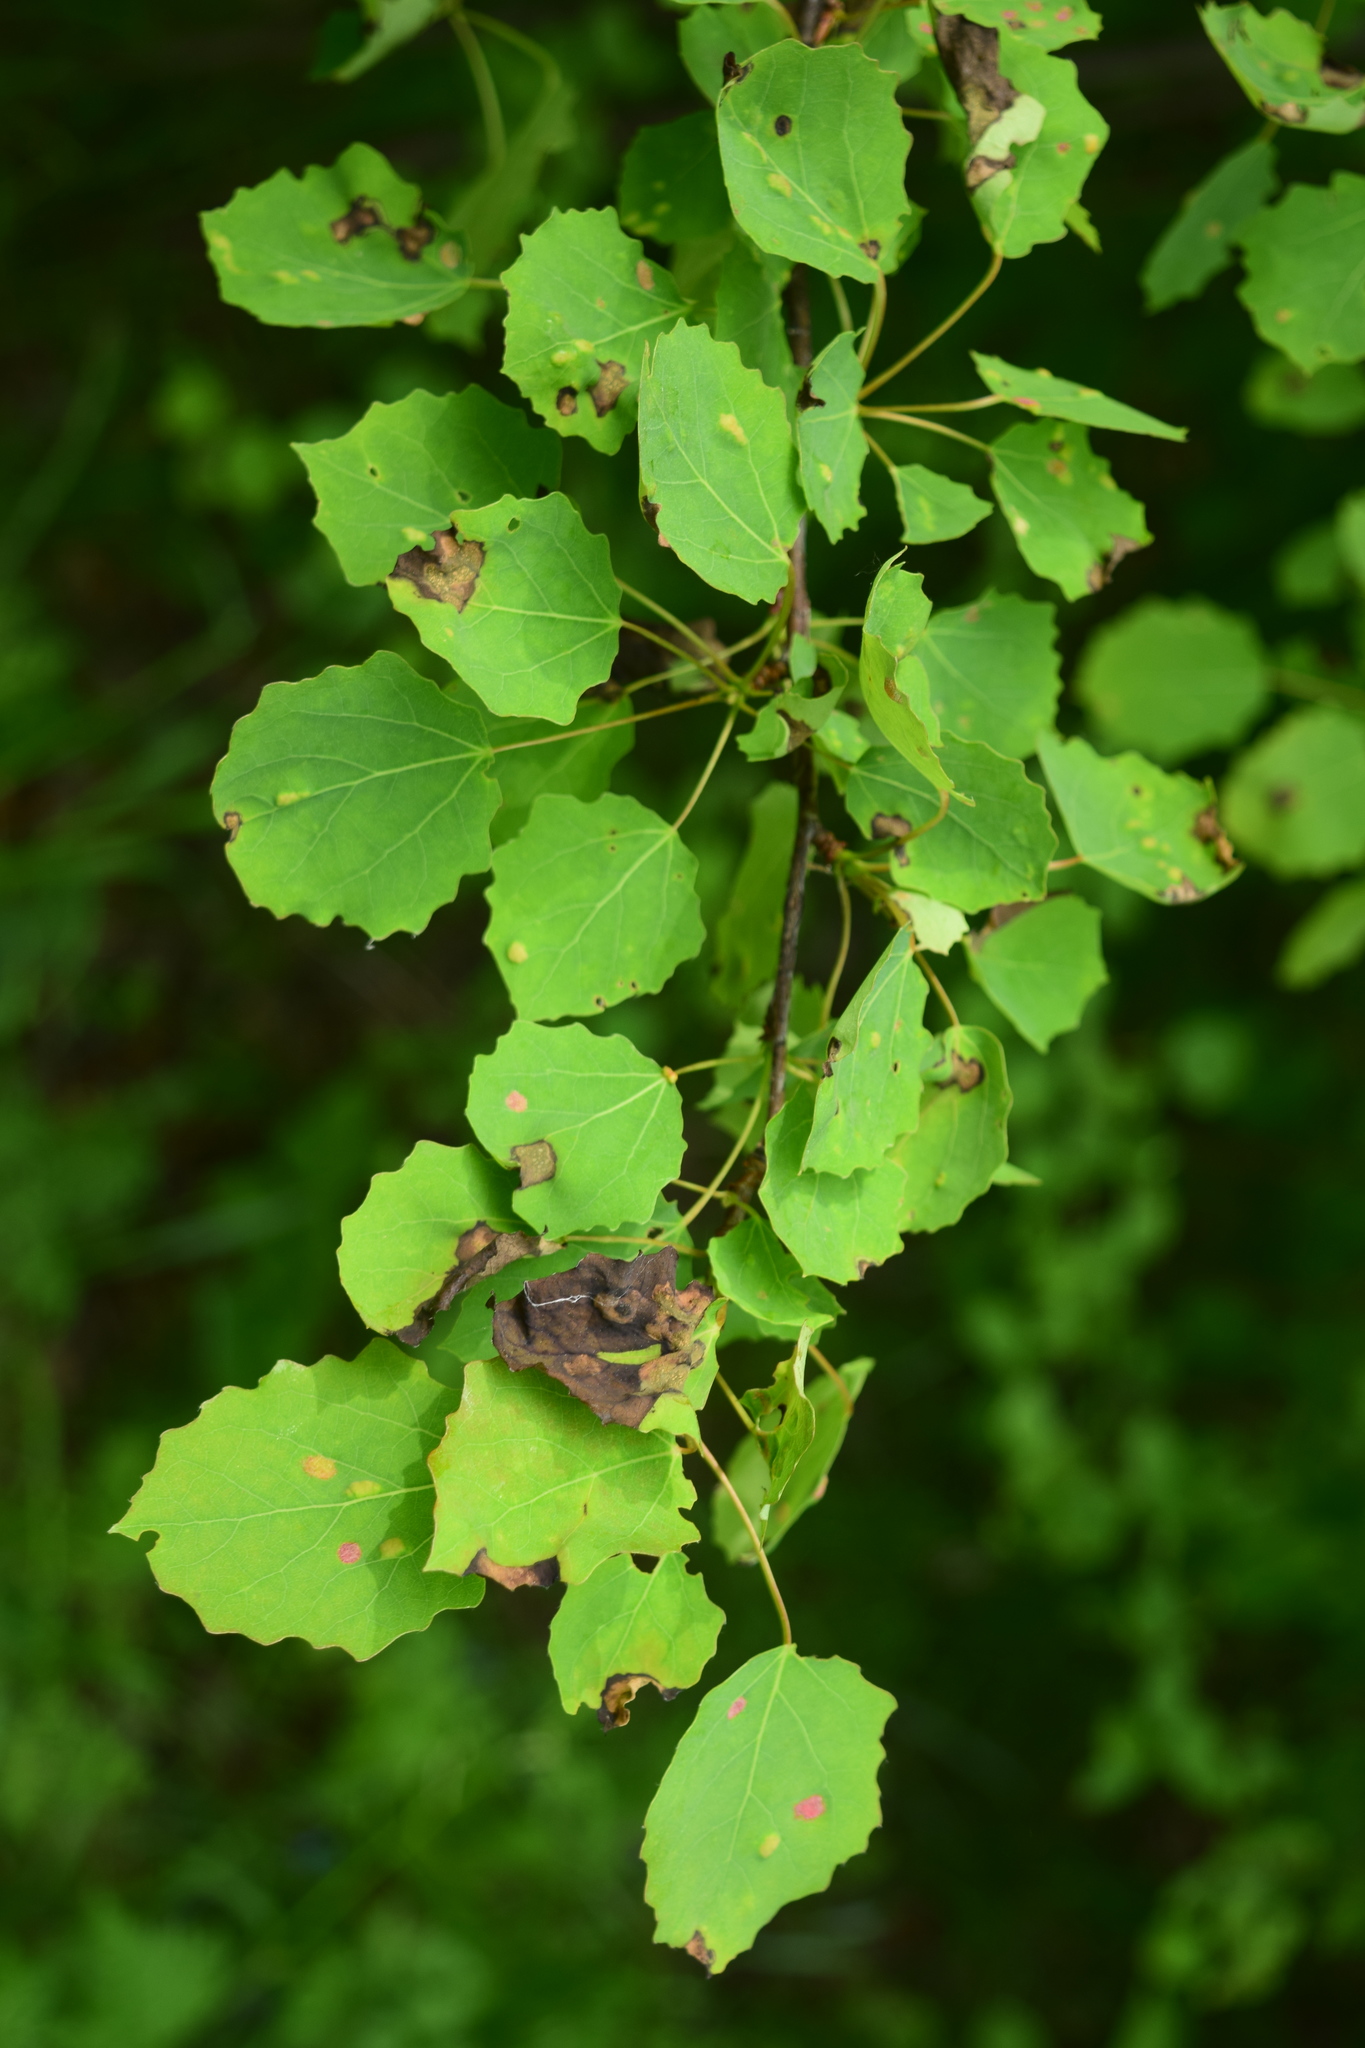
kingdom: Plantae
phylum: Tracheophyta
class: Magnoliopsida
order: Malpighiales
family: Salicaceae
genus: Populus
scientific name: Populus tremula
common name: European aspen
